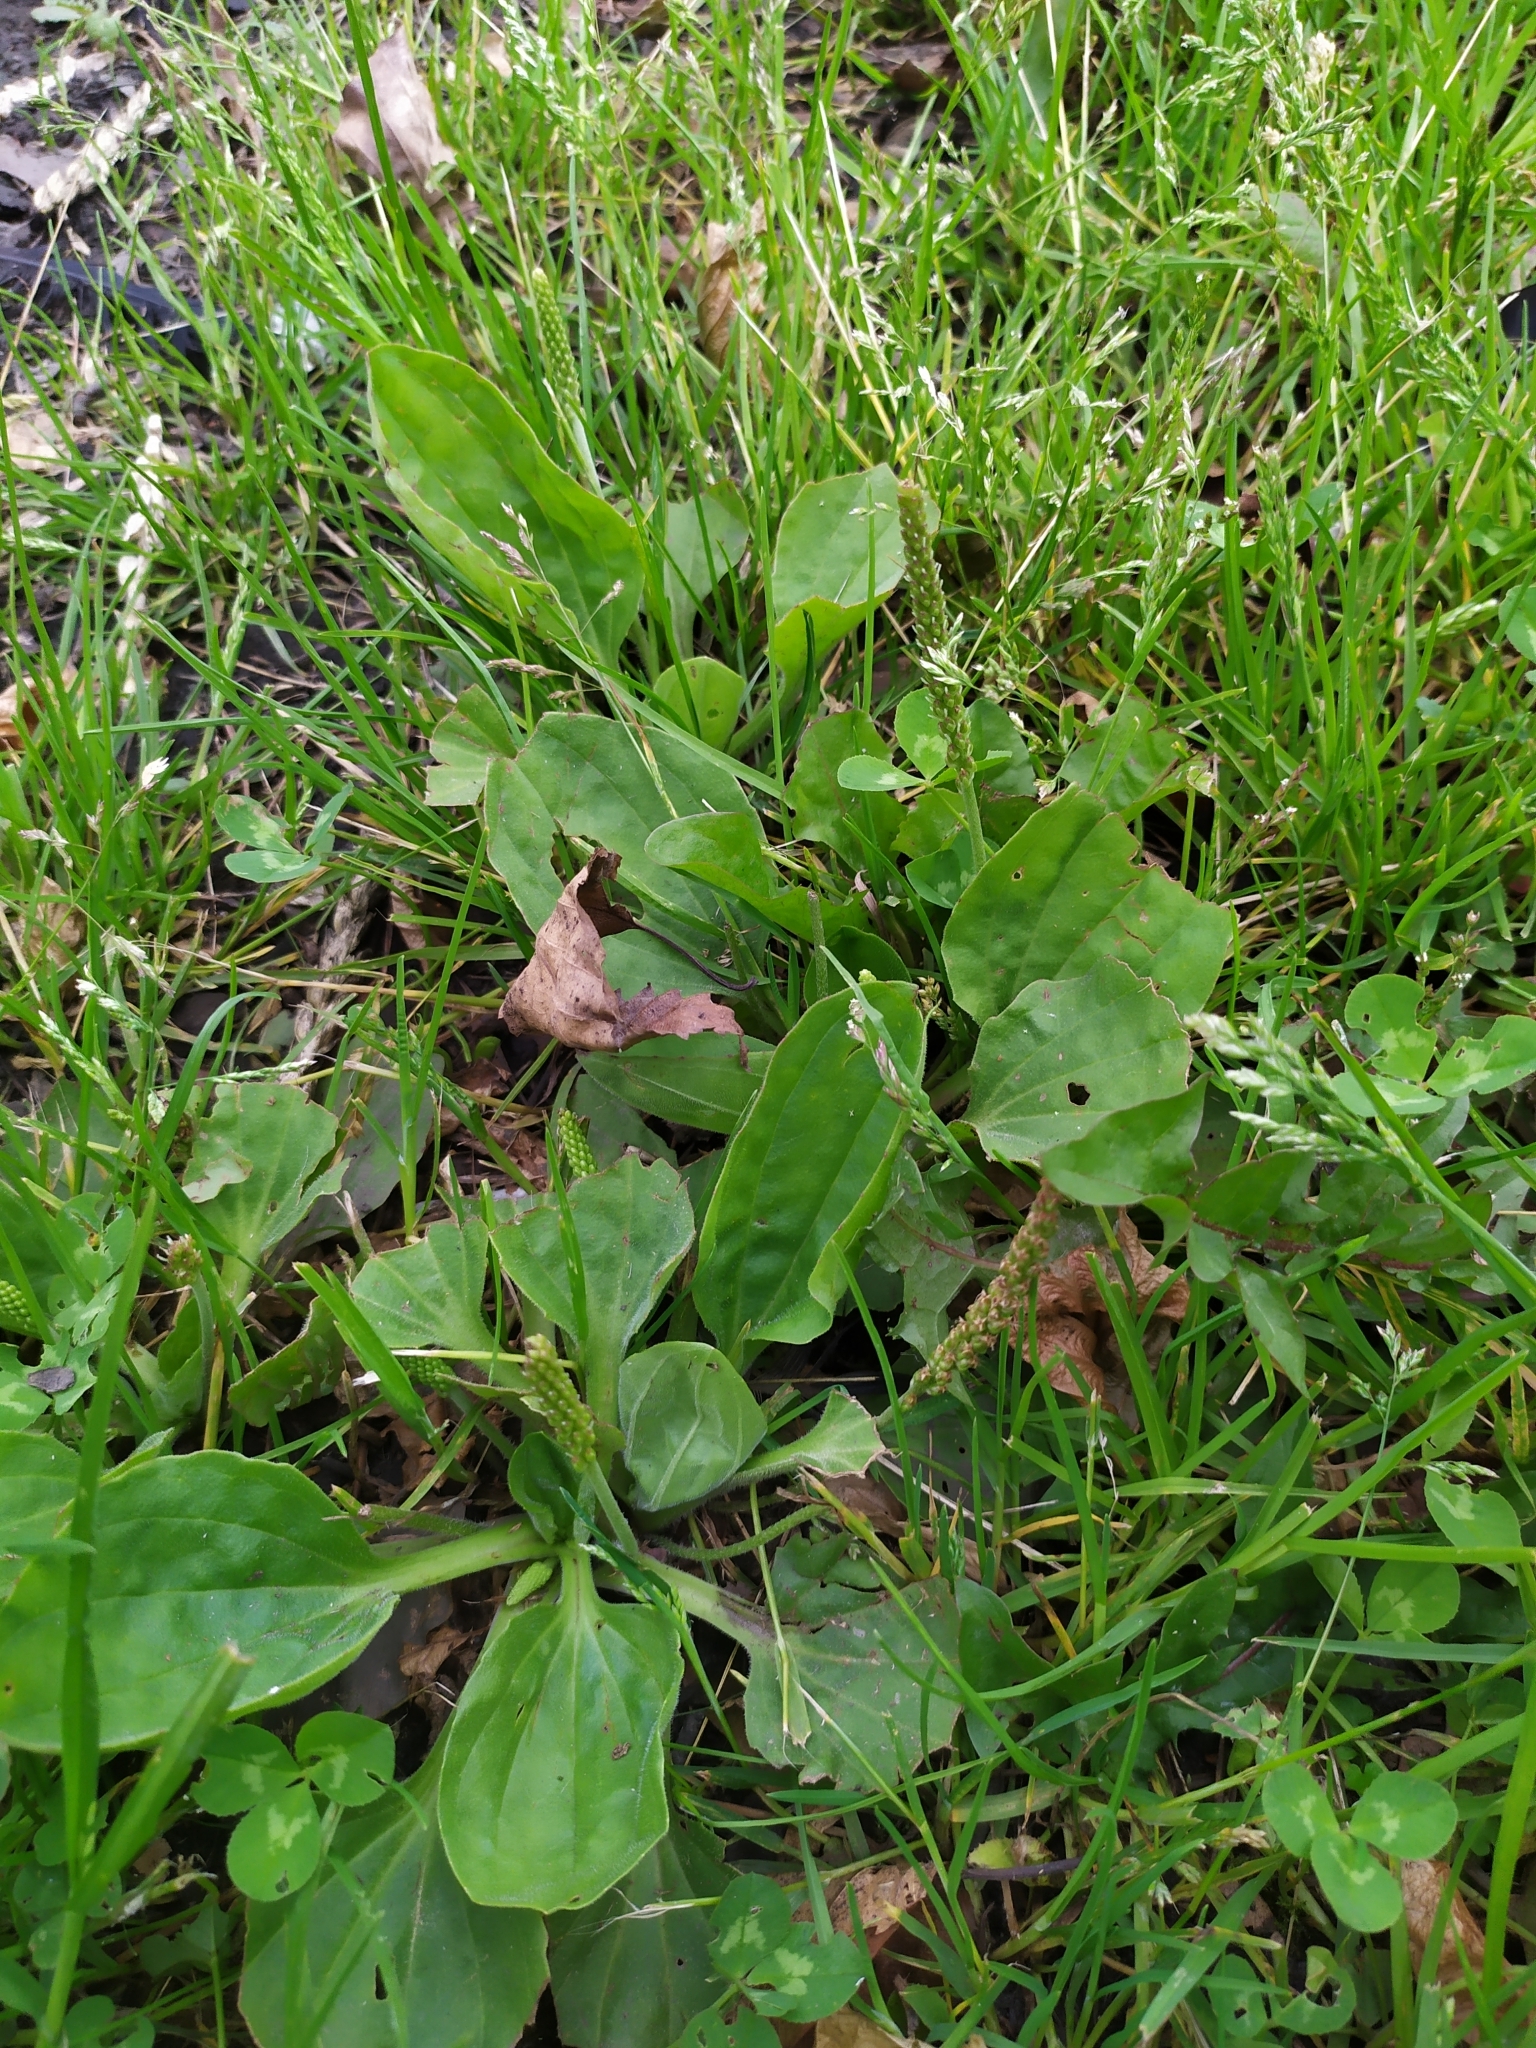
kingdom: Plantae
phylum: Tracheophyta
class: Magnoliopsida
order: Lamiales
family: Plantaginaceae
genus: Plantago
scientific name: Plantago major
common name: Common plantain
